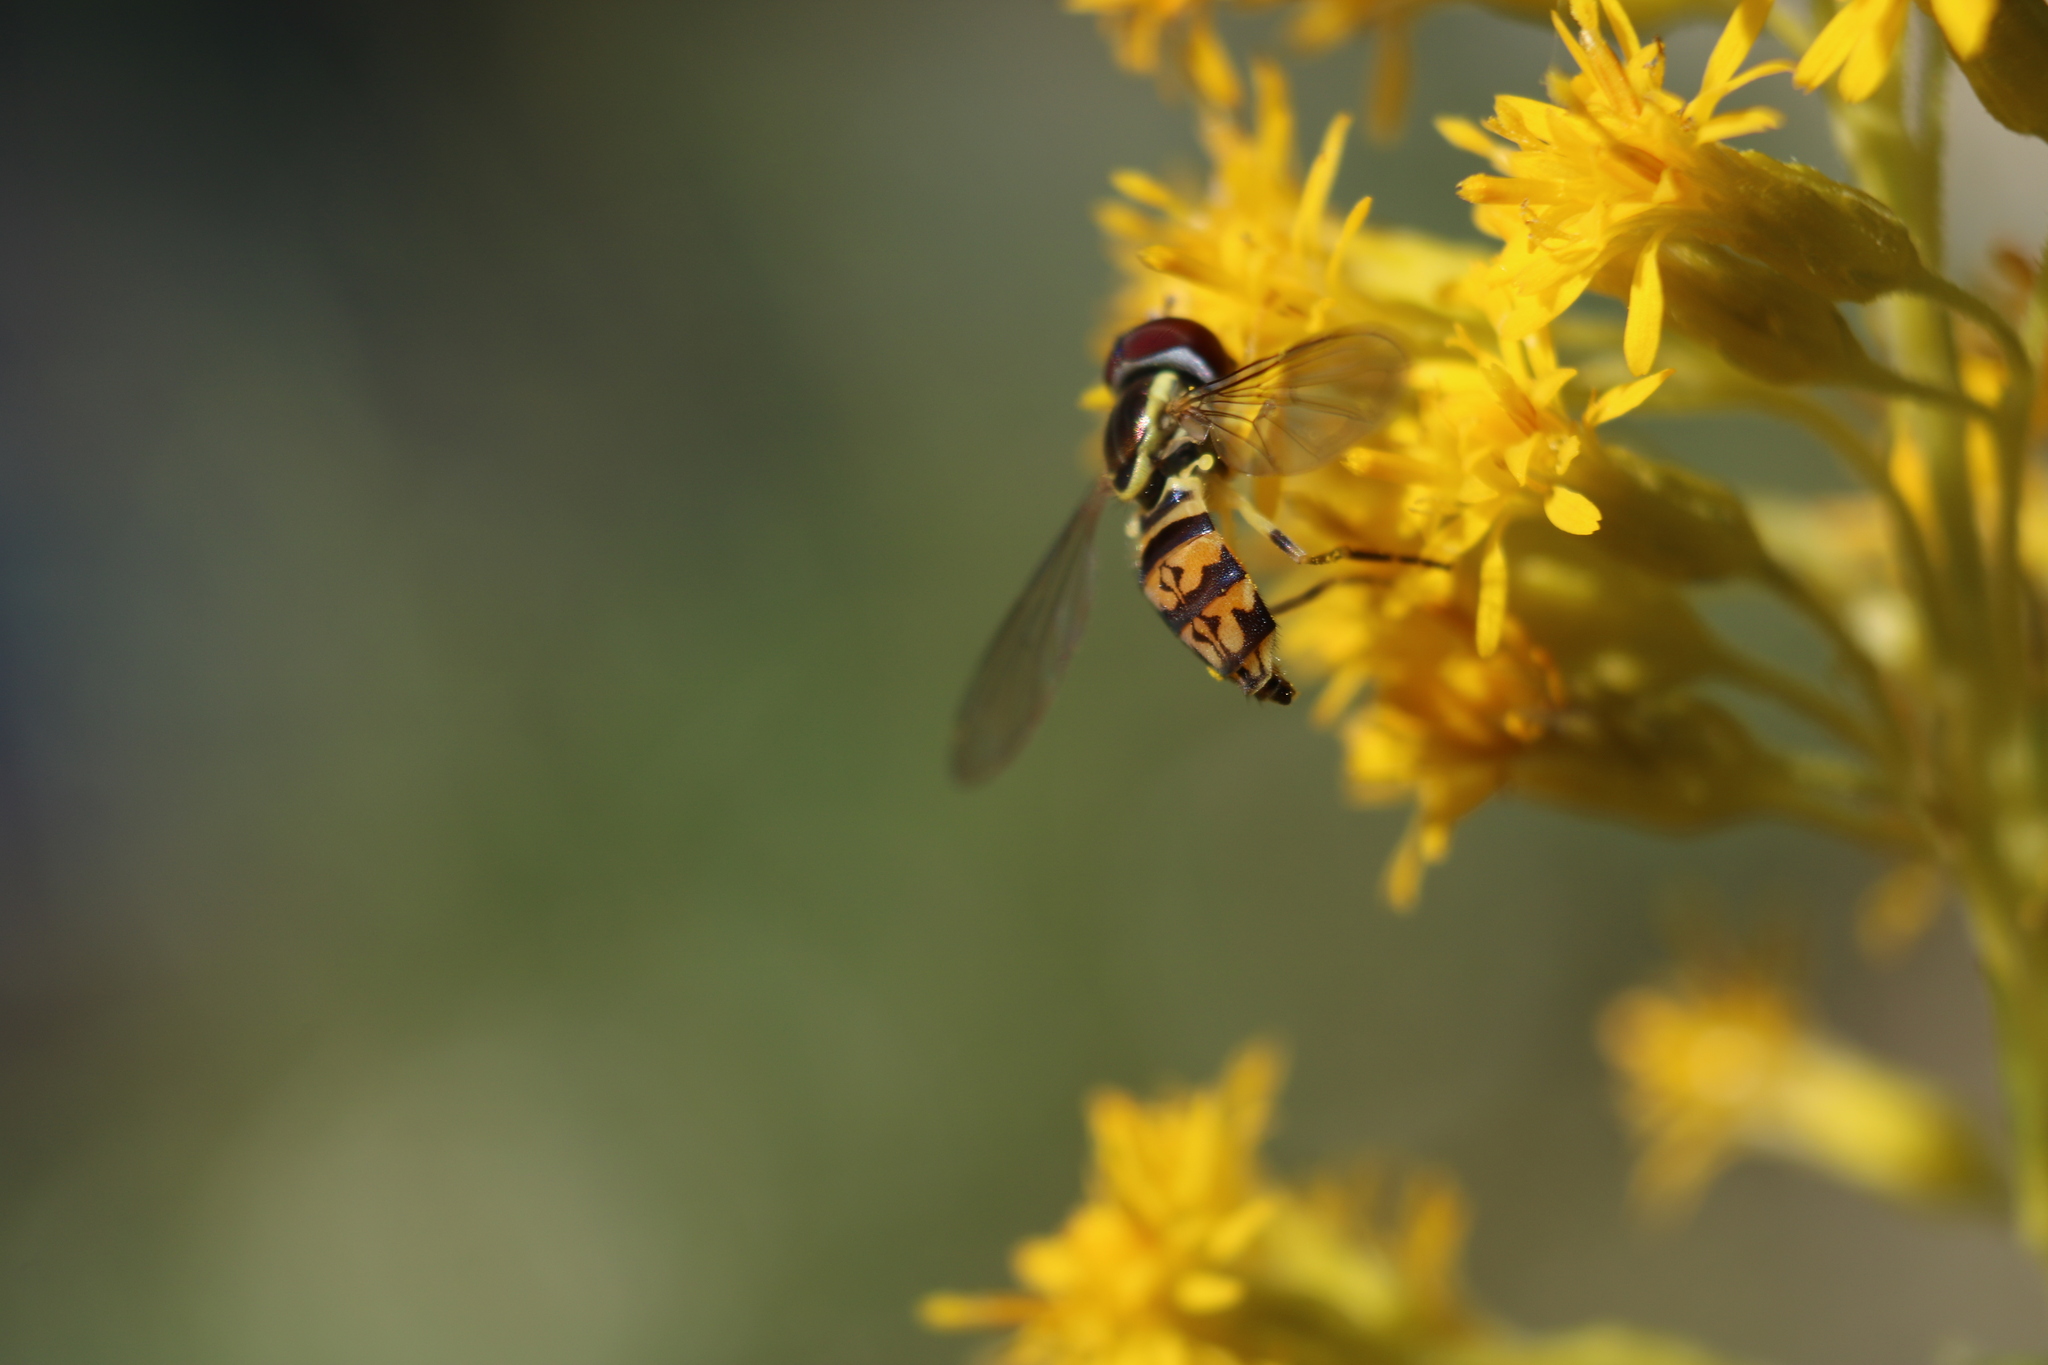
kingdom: Animalia
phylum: Arthropoda
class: Insecta
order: Diptera
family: Syrphidae
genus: Toxomerus
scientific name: Toxomerus geminatus
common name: Eastern calligrapher
